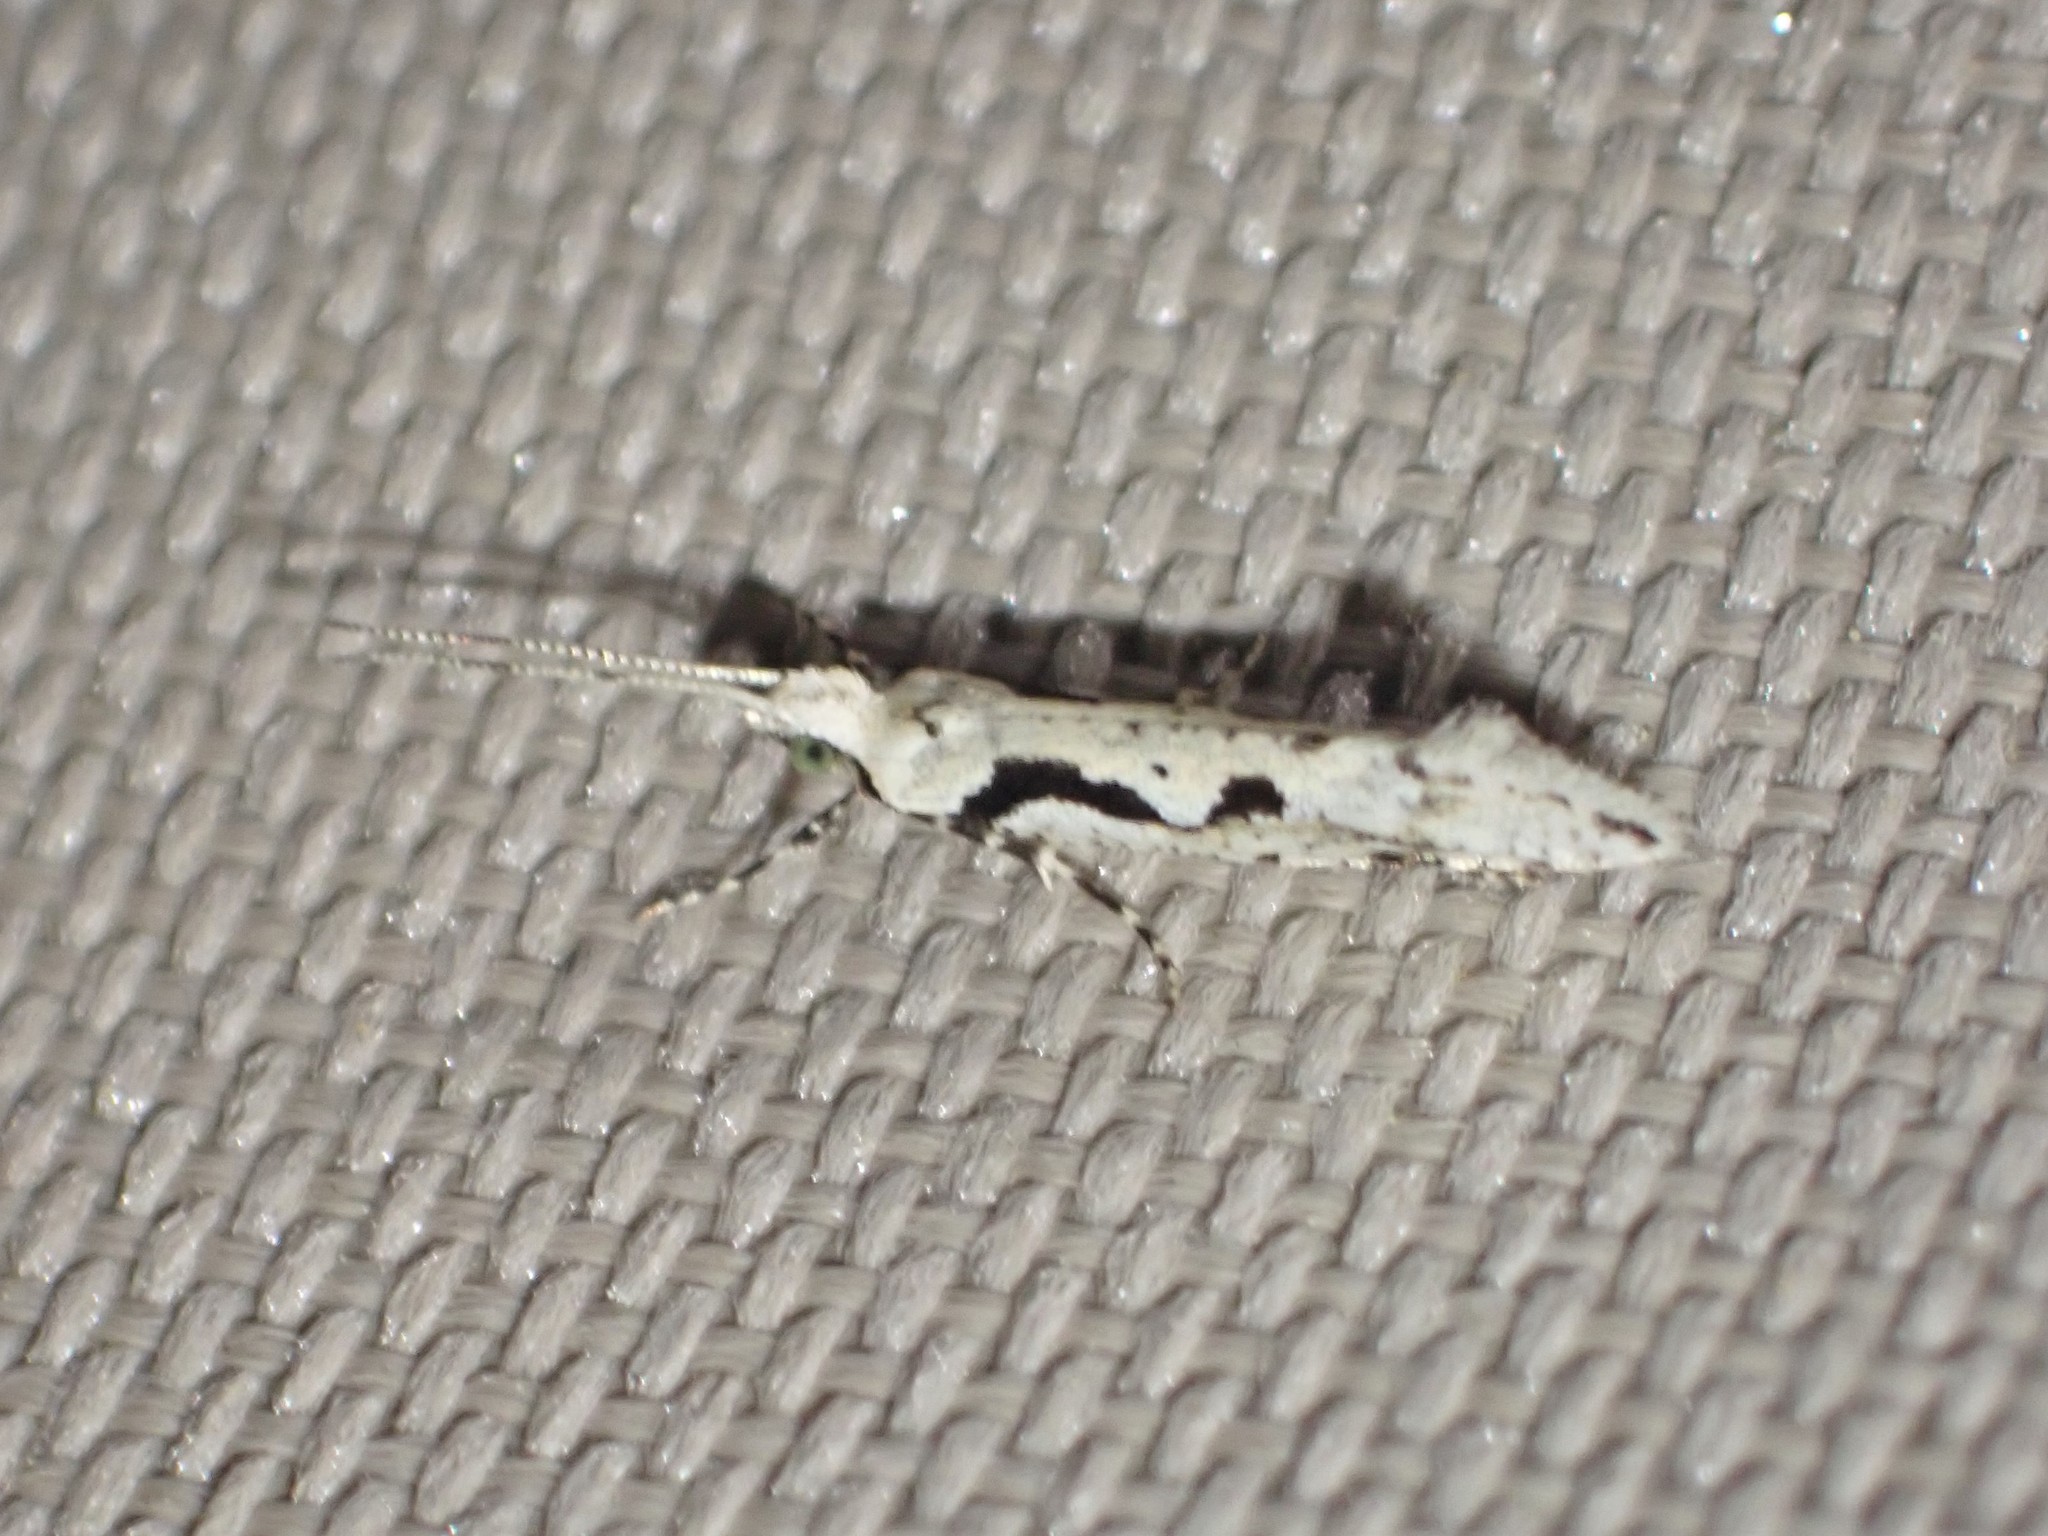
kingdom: Animalia
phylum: Arthropoda
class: Insecta
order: Lepidoptera
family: Plutellidae
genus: Rhigognostis
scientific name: Rhigognostis interrupta
